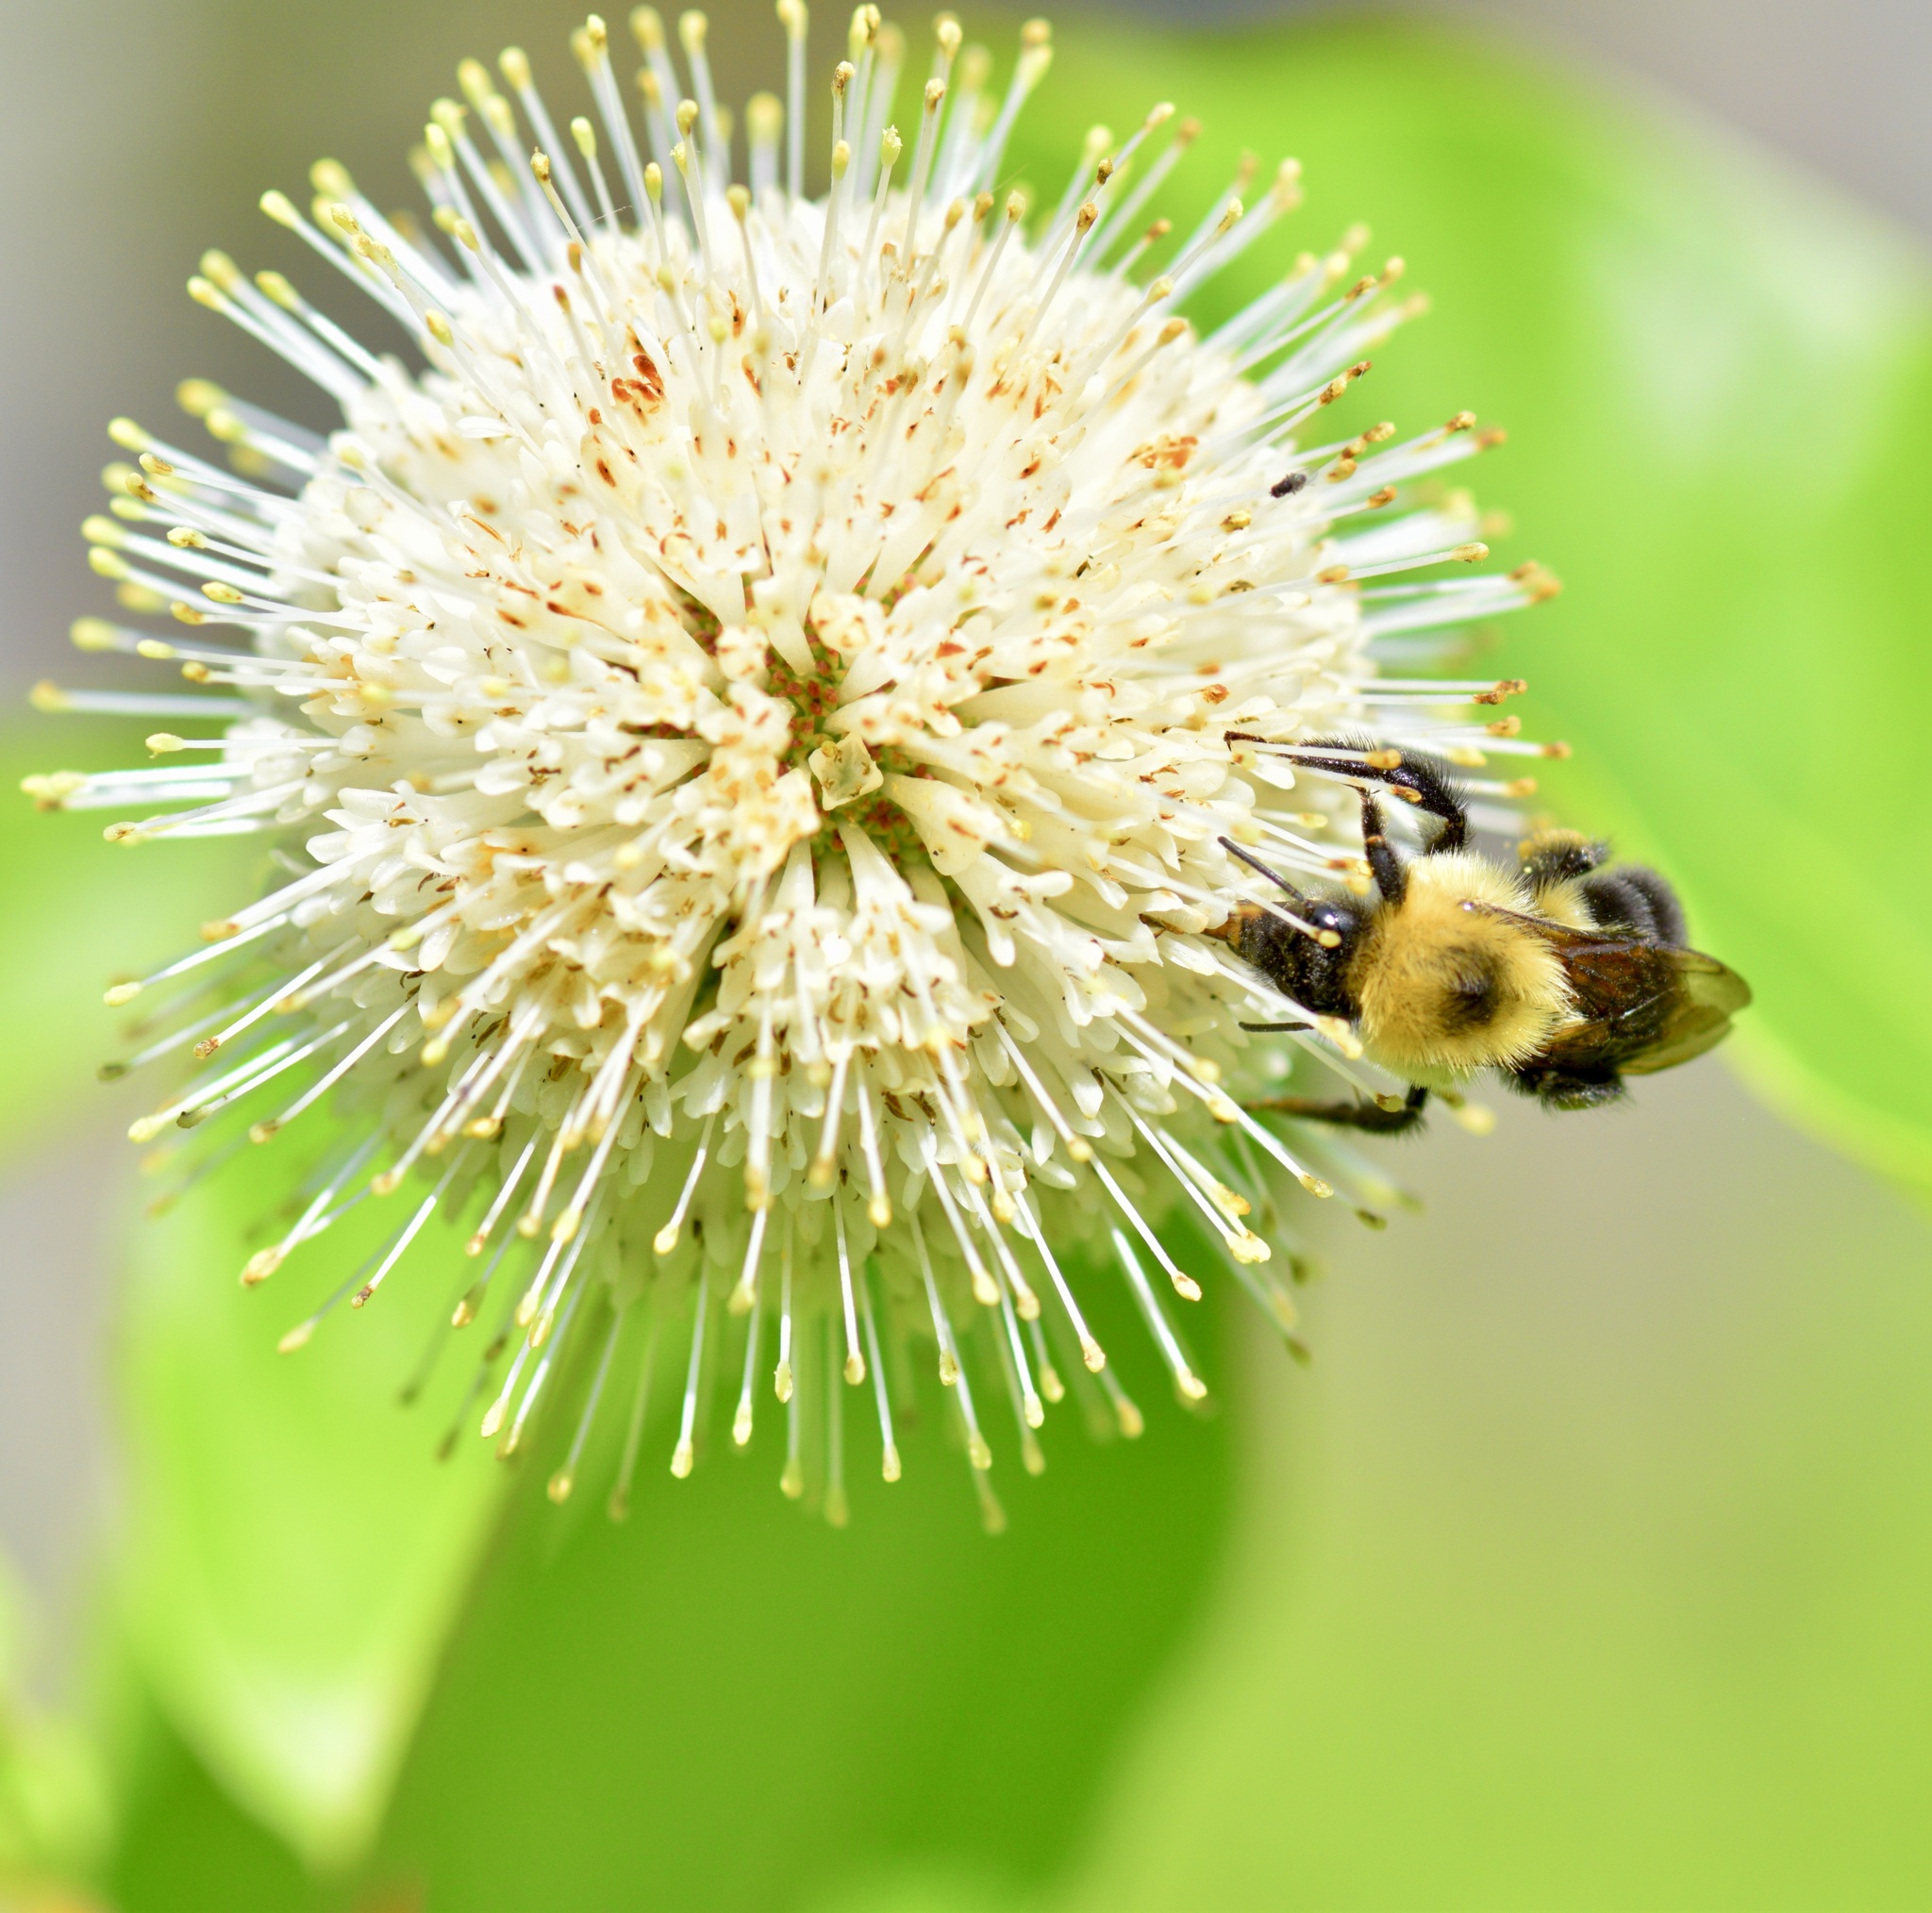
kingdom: Animalia
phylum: Arthropoda
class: Insecta
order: Hymenoptera
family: Apidae
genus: Bombus
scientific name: Bombus bimaculatus
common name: Two-spotted bumble bee
